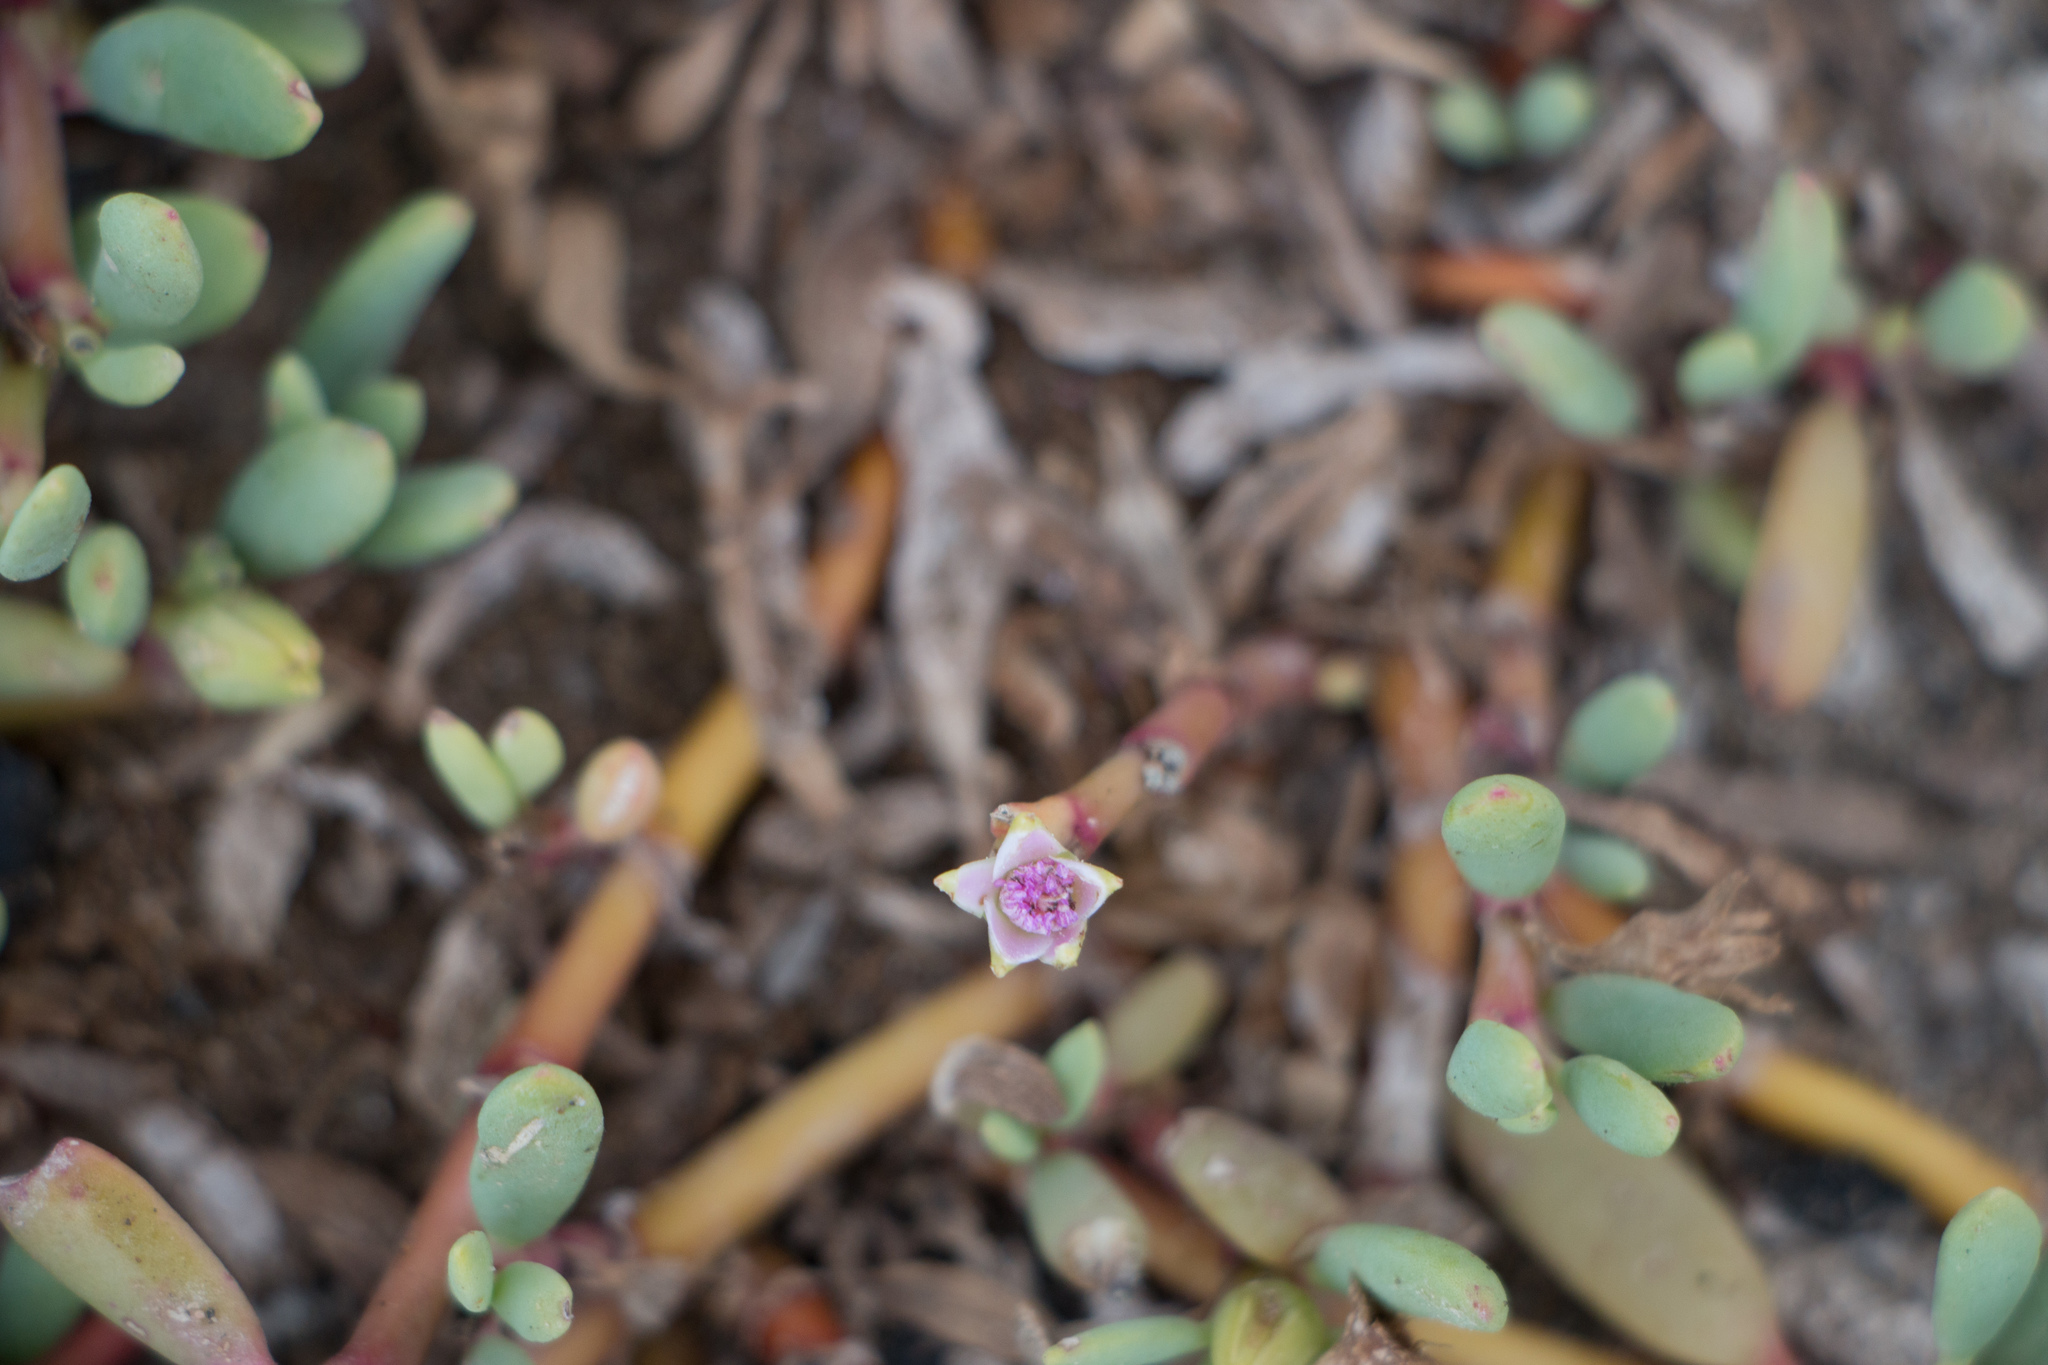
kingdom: Plantae
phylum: Tracheophyta
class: Magnoliopsida
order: Caryophyllales
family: Aizoaceae
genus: Sesuvium
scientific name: Sesuvium portulacastrum
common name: Sea-purslane
